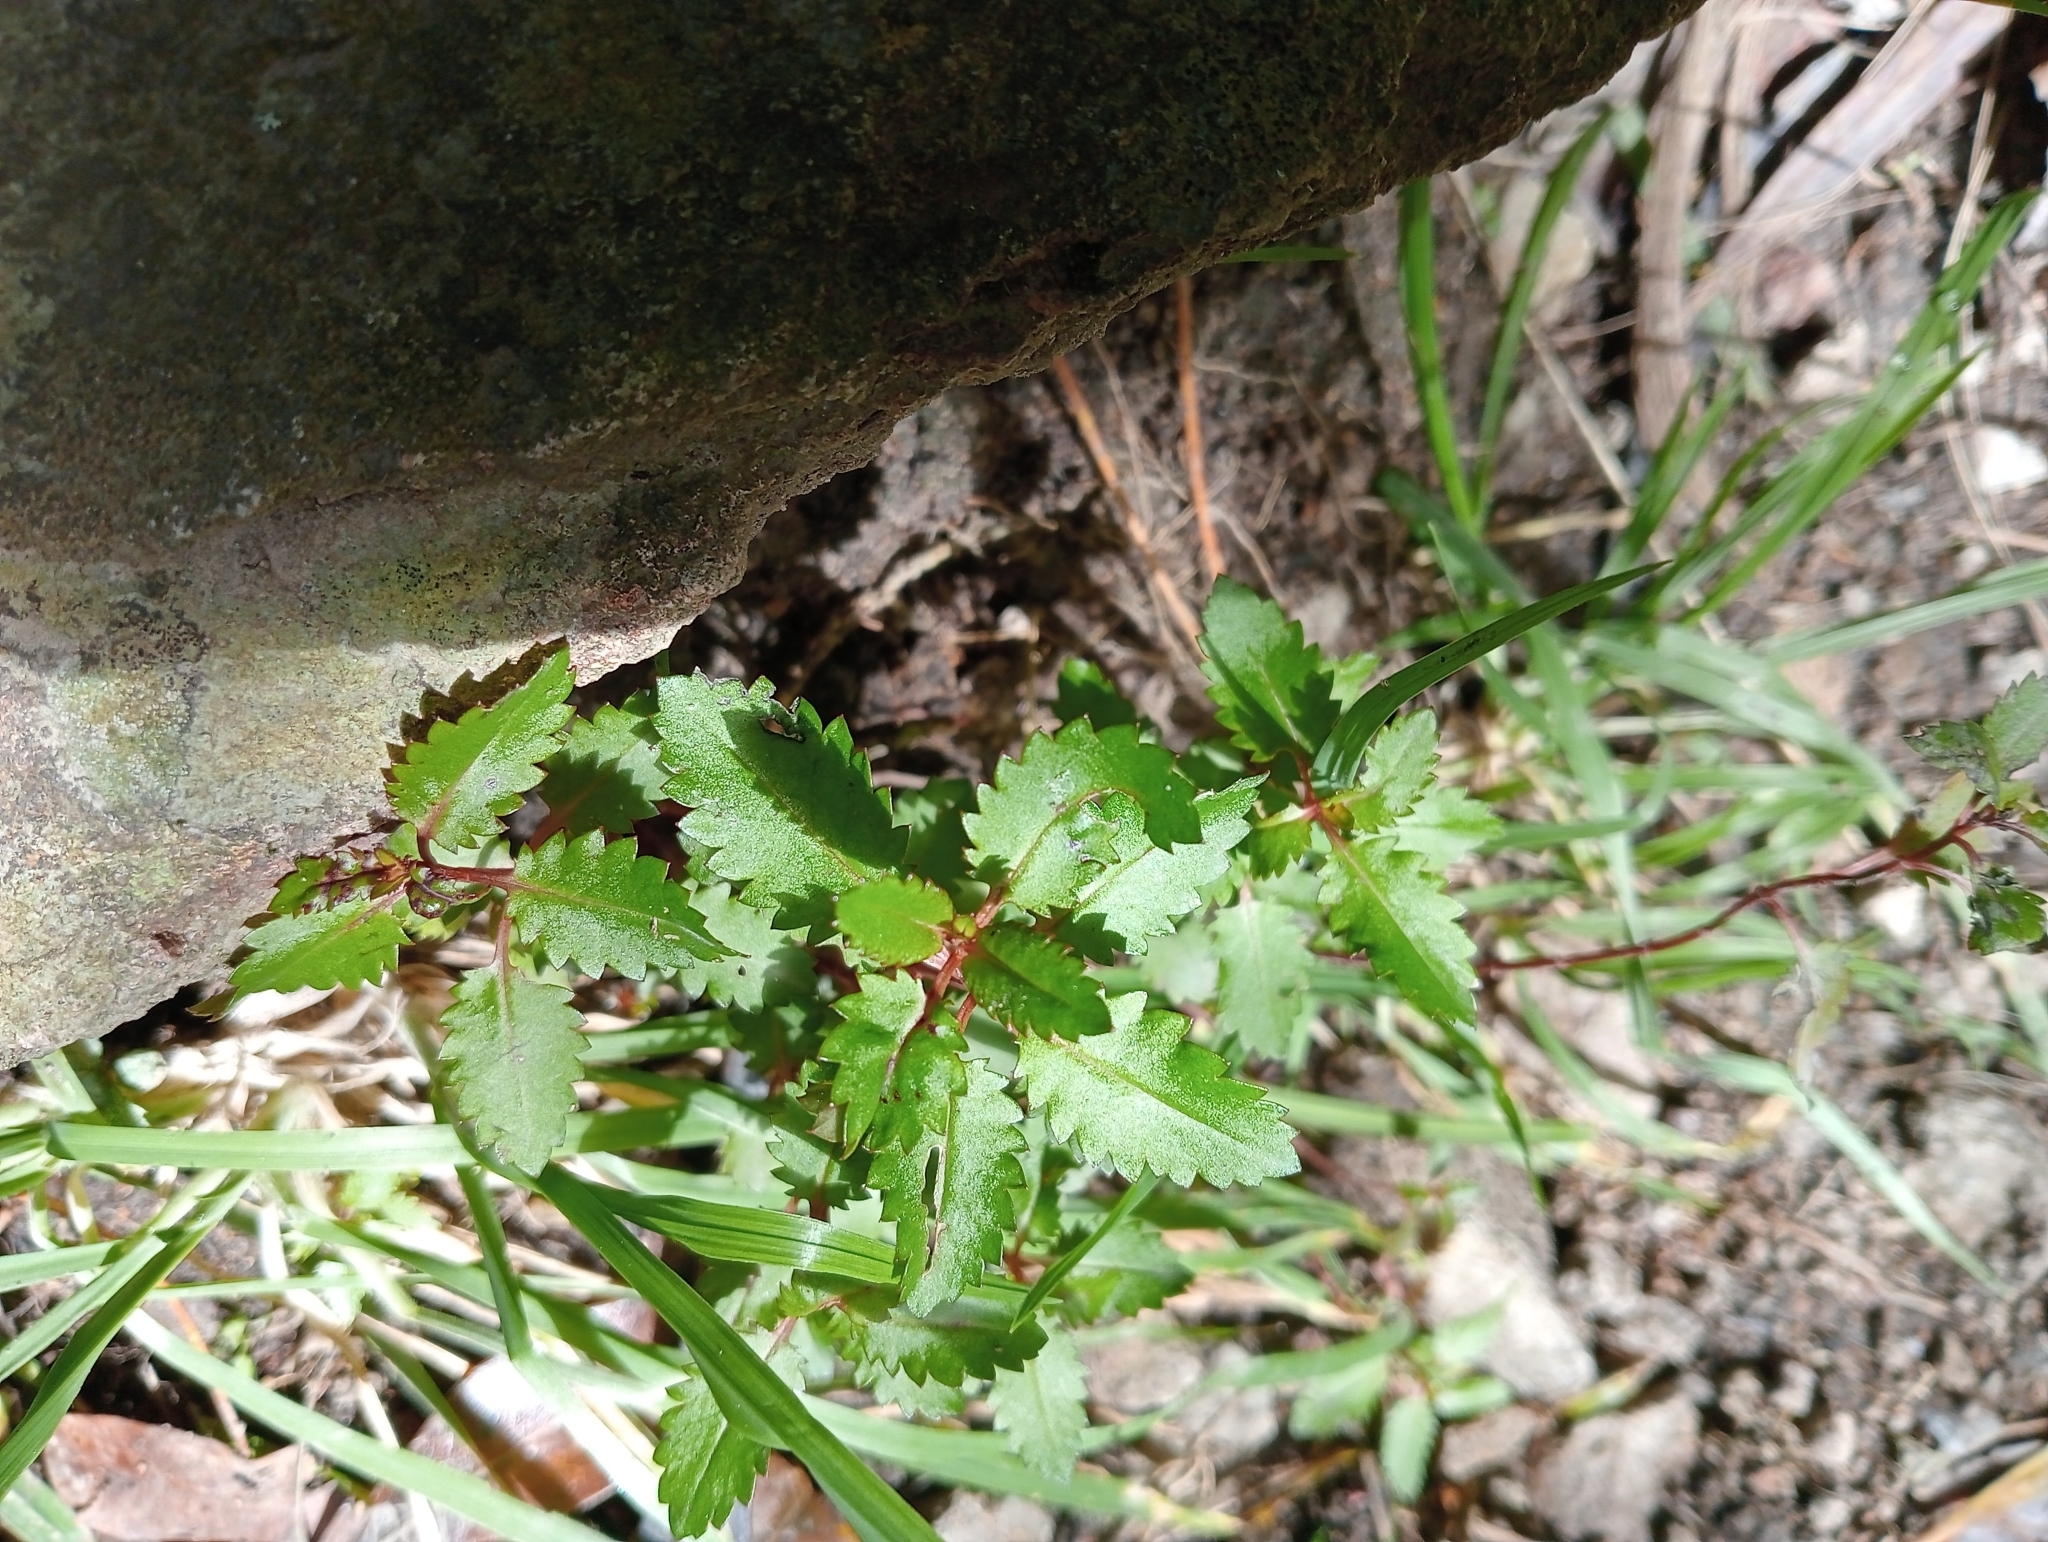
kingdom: Plantae
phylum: Tracheophyta
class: Magnoliopsida
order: Saxifragales
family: Haloragaceae
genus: Haloragis
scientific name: Haloragis erecta
